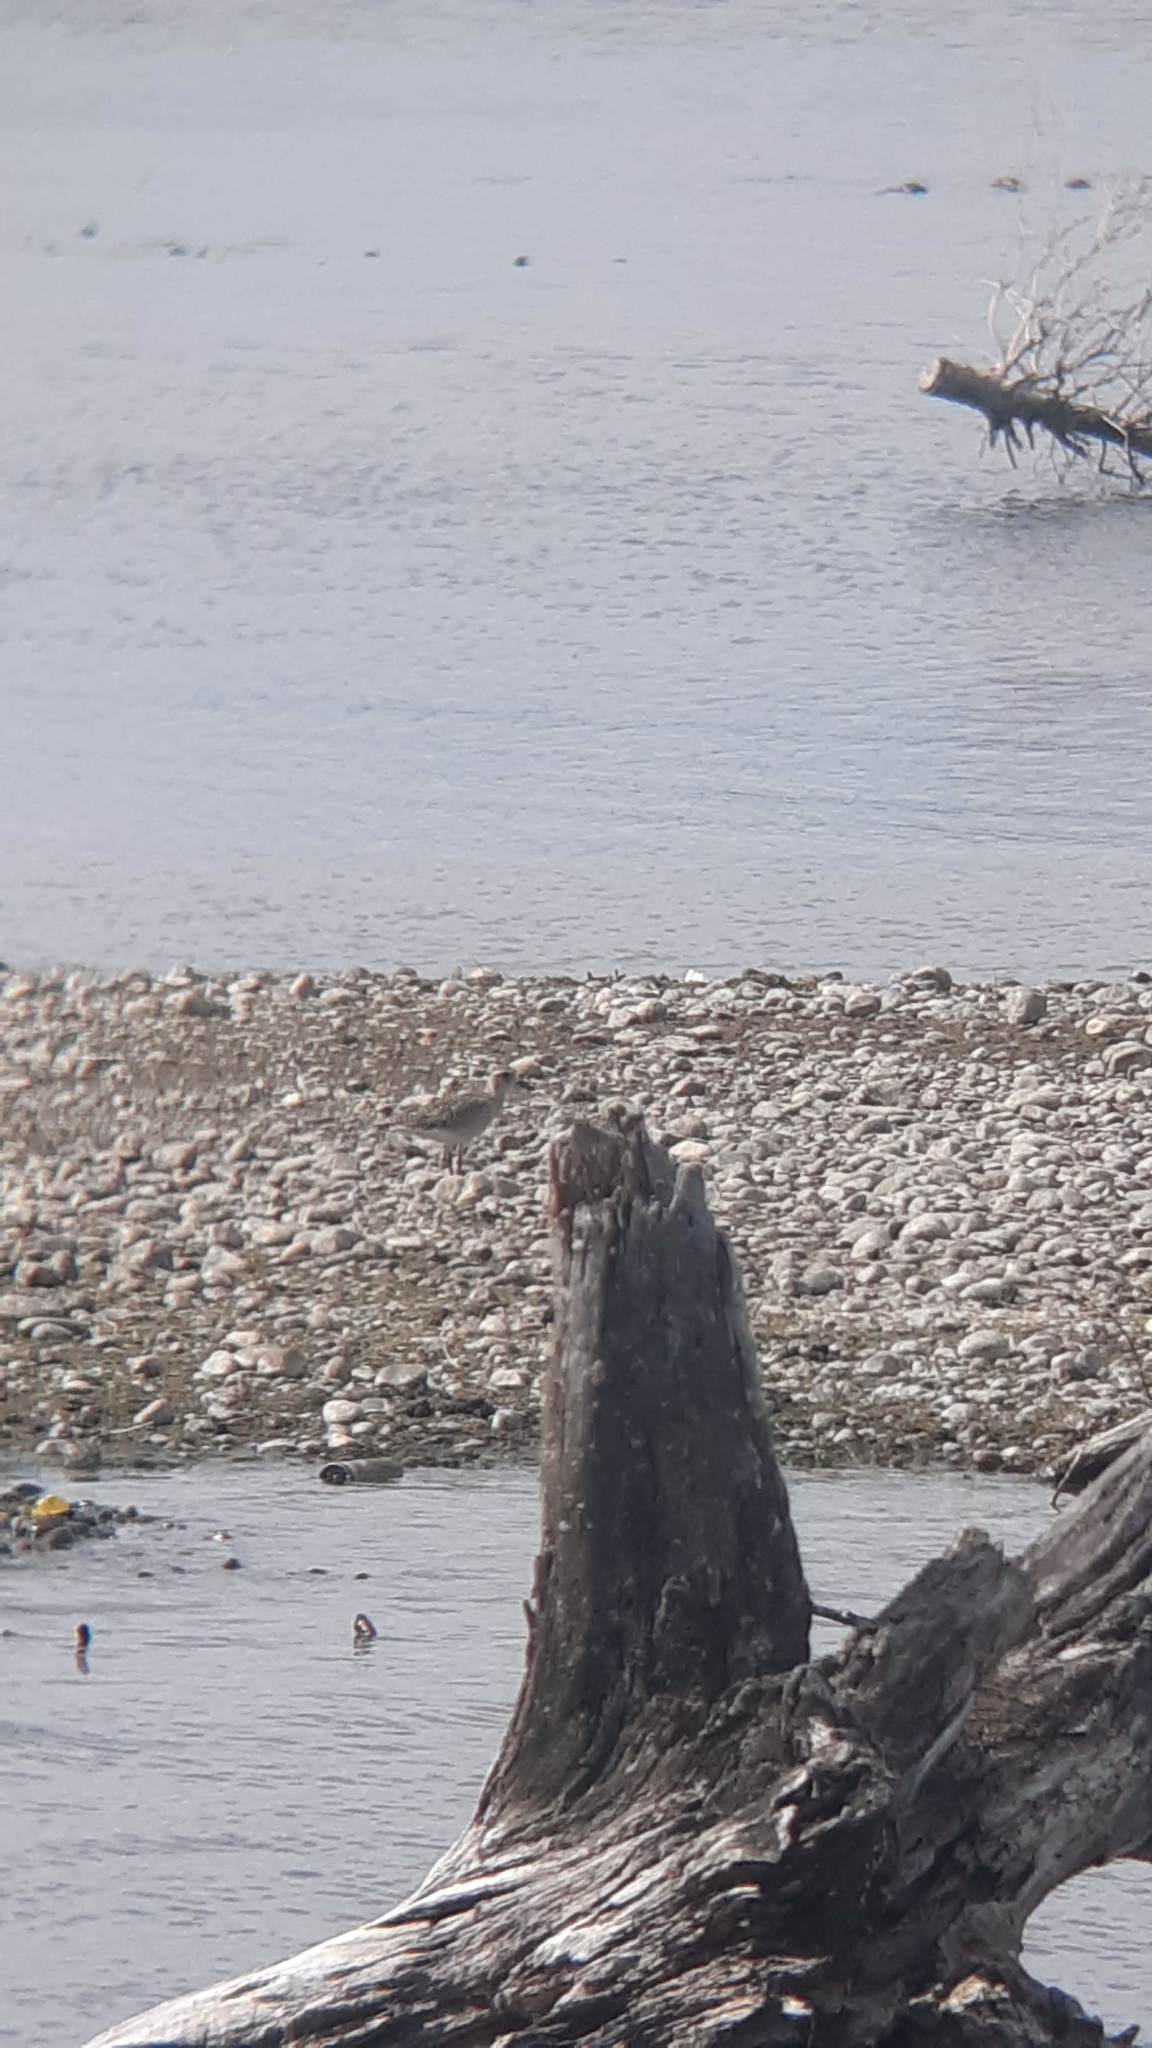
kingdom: Animalia
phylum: Chordata
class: Aves
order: Charadriiformes
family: Charadriidae
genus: Pluvialis
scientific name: Pluvialis squatarola
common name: Grey plover
